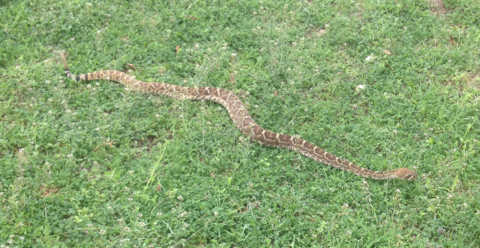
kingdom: Animalia
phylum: Chordata
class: Squamata
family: Viperidae
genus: Crotalus
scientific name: Crotalus atrox
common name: Western diamond-backed rattlesnake
